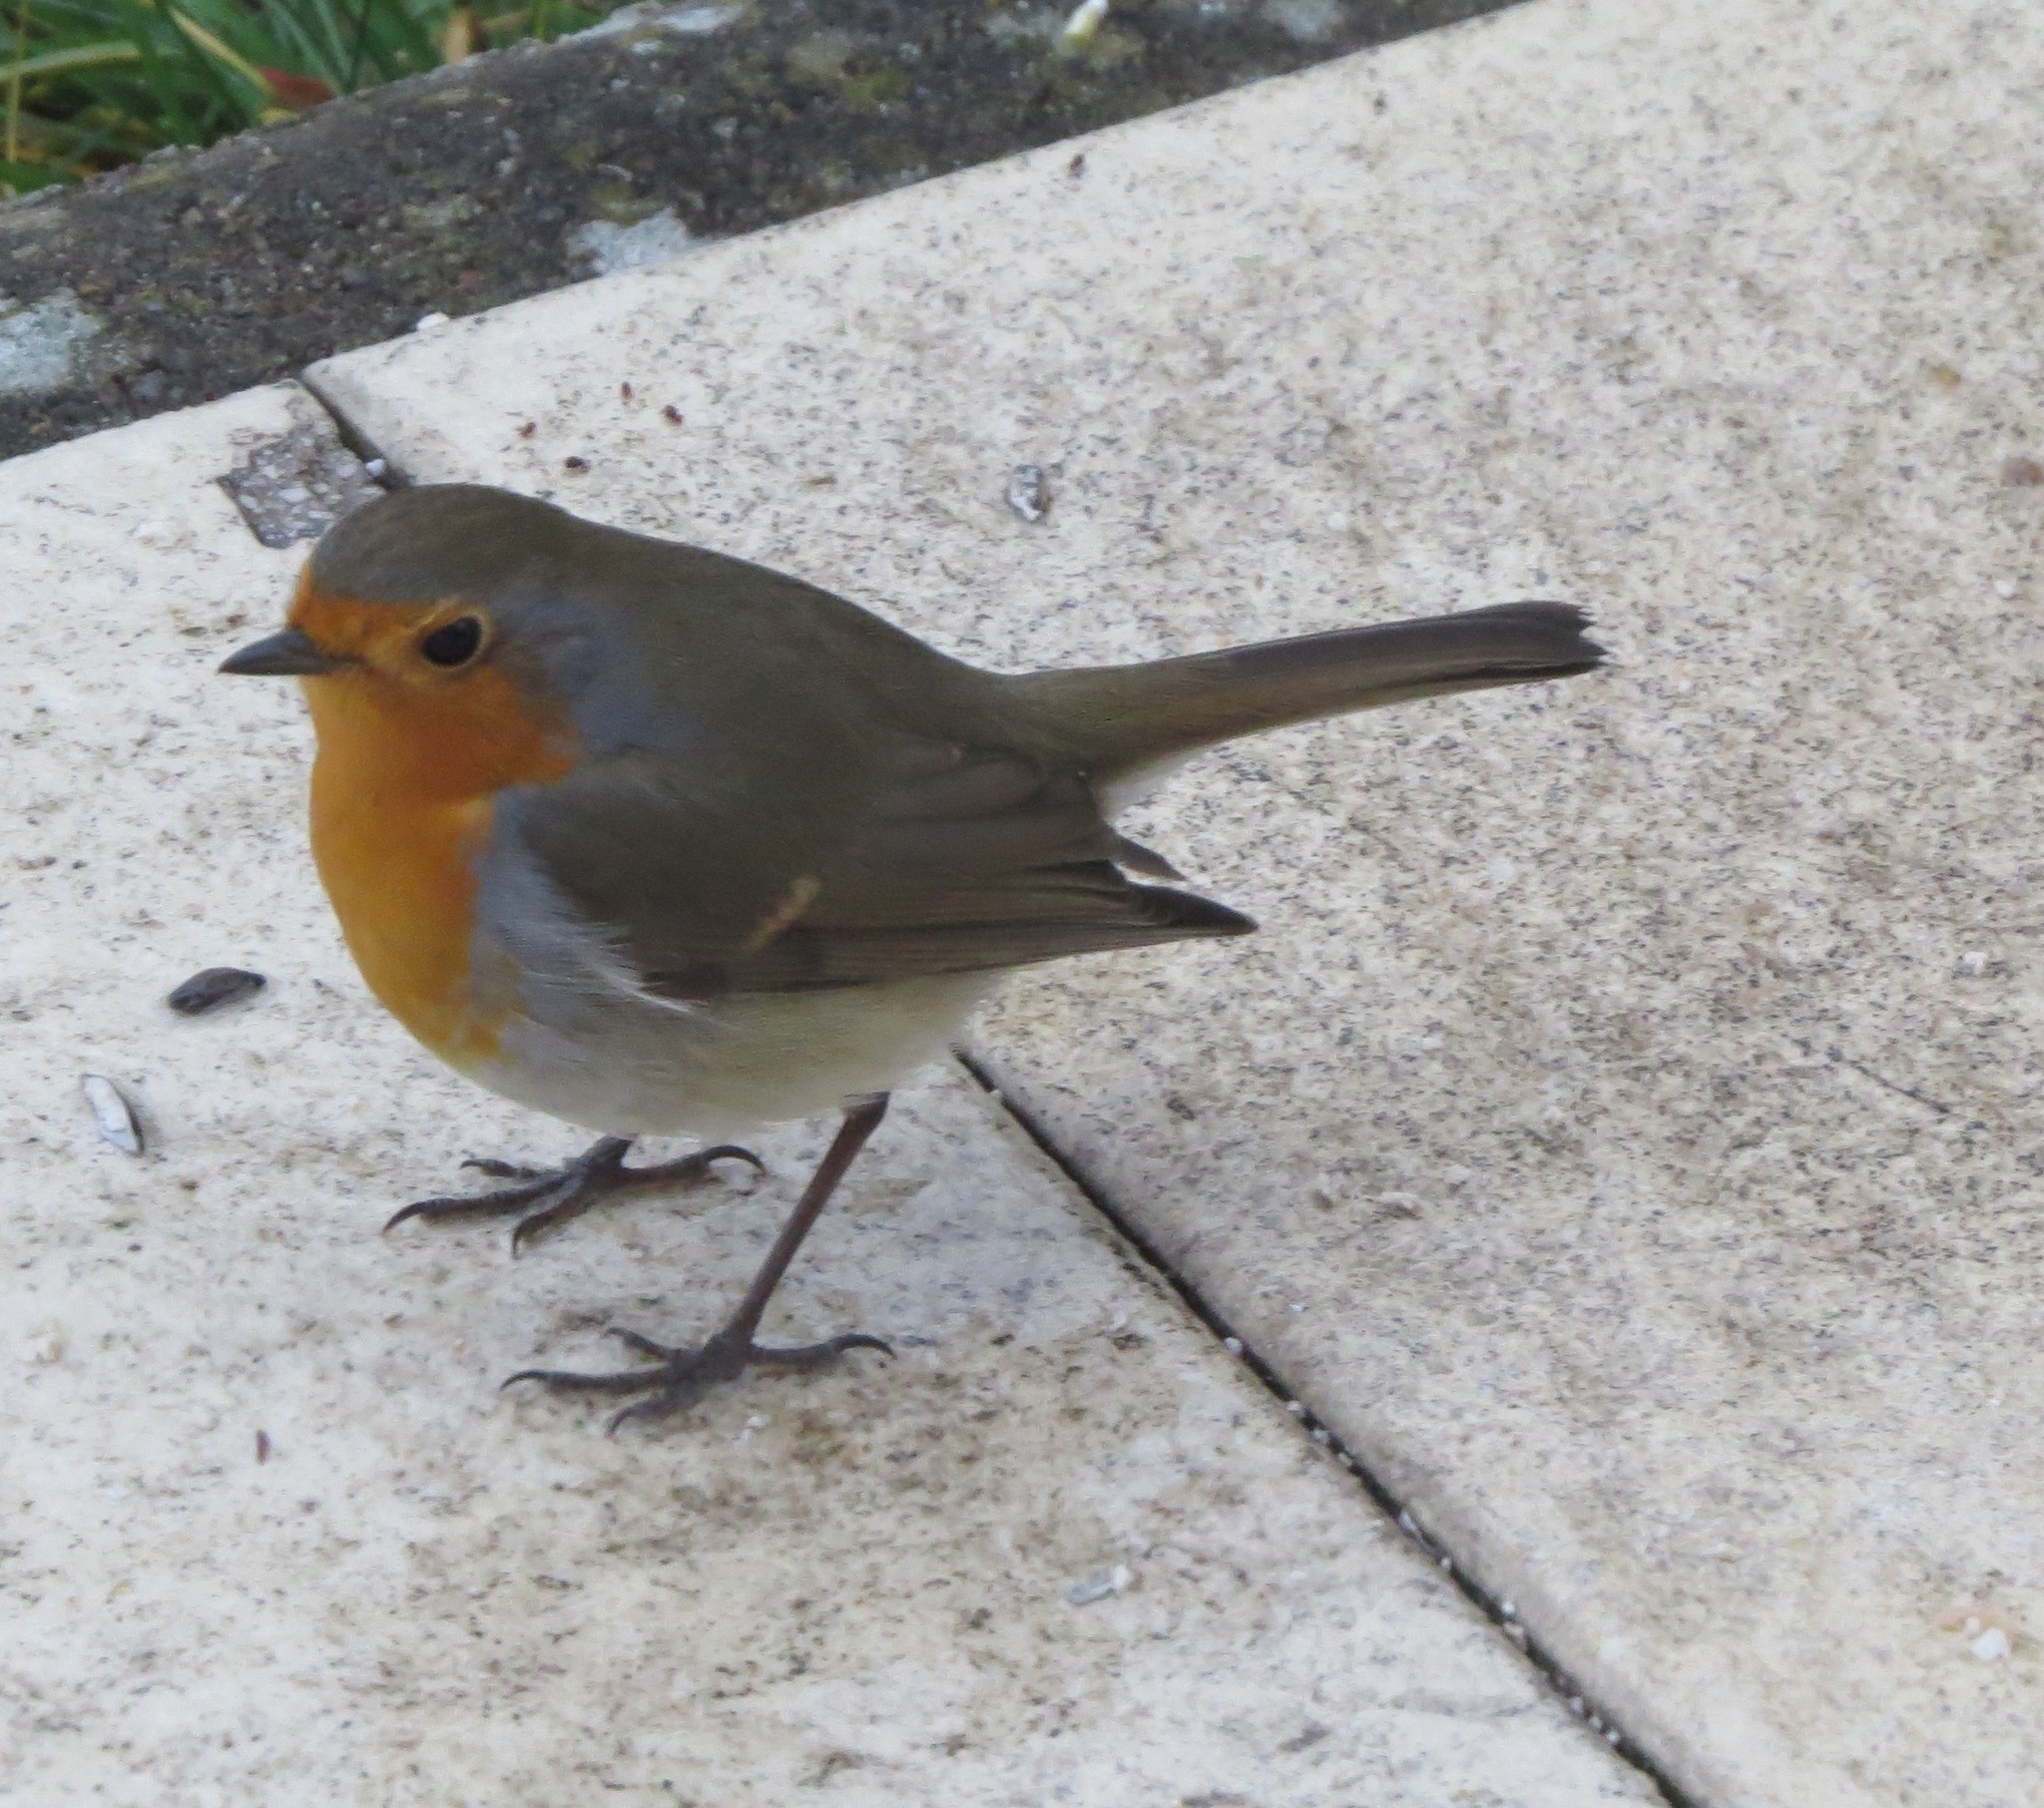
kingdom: Animalia
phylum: Chordata
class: Aves
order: Passeriformes
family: Muscicapidae
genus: Erithacus
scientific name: Erithacus rubecula
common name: European robin
